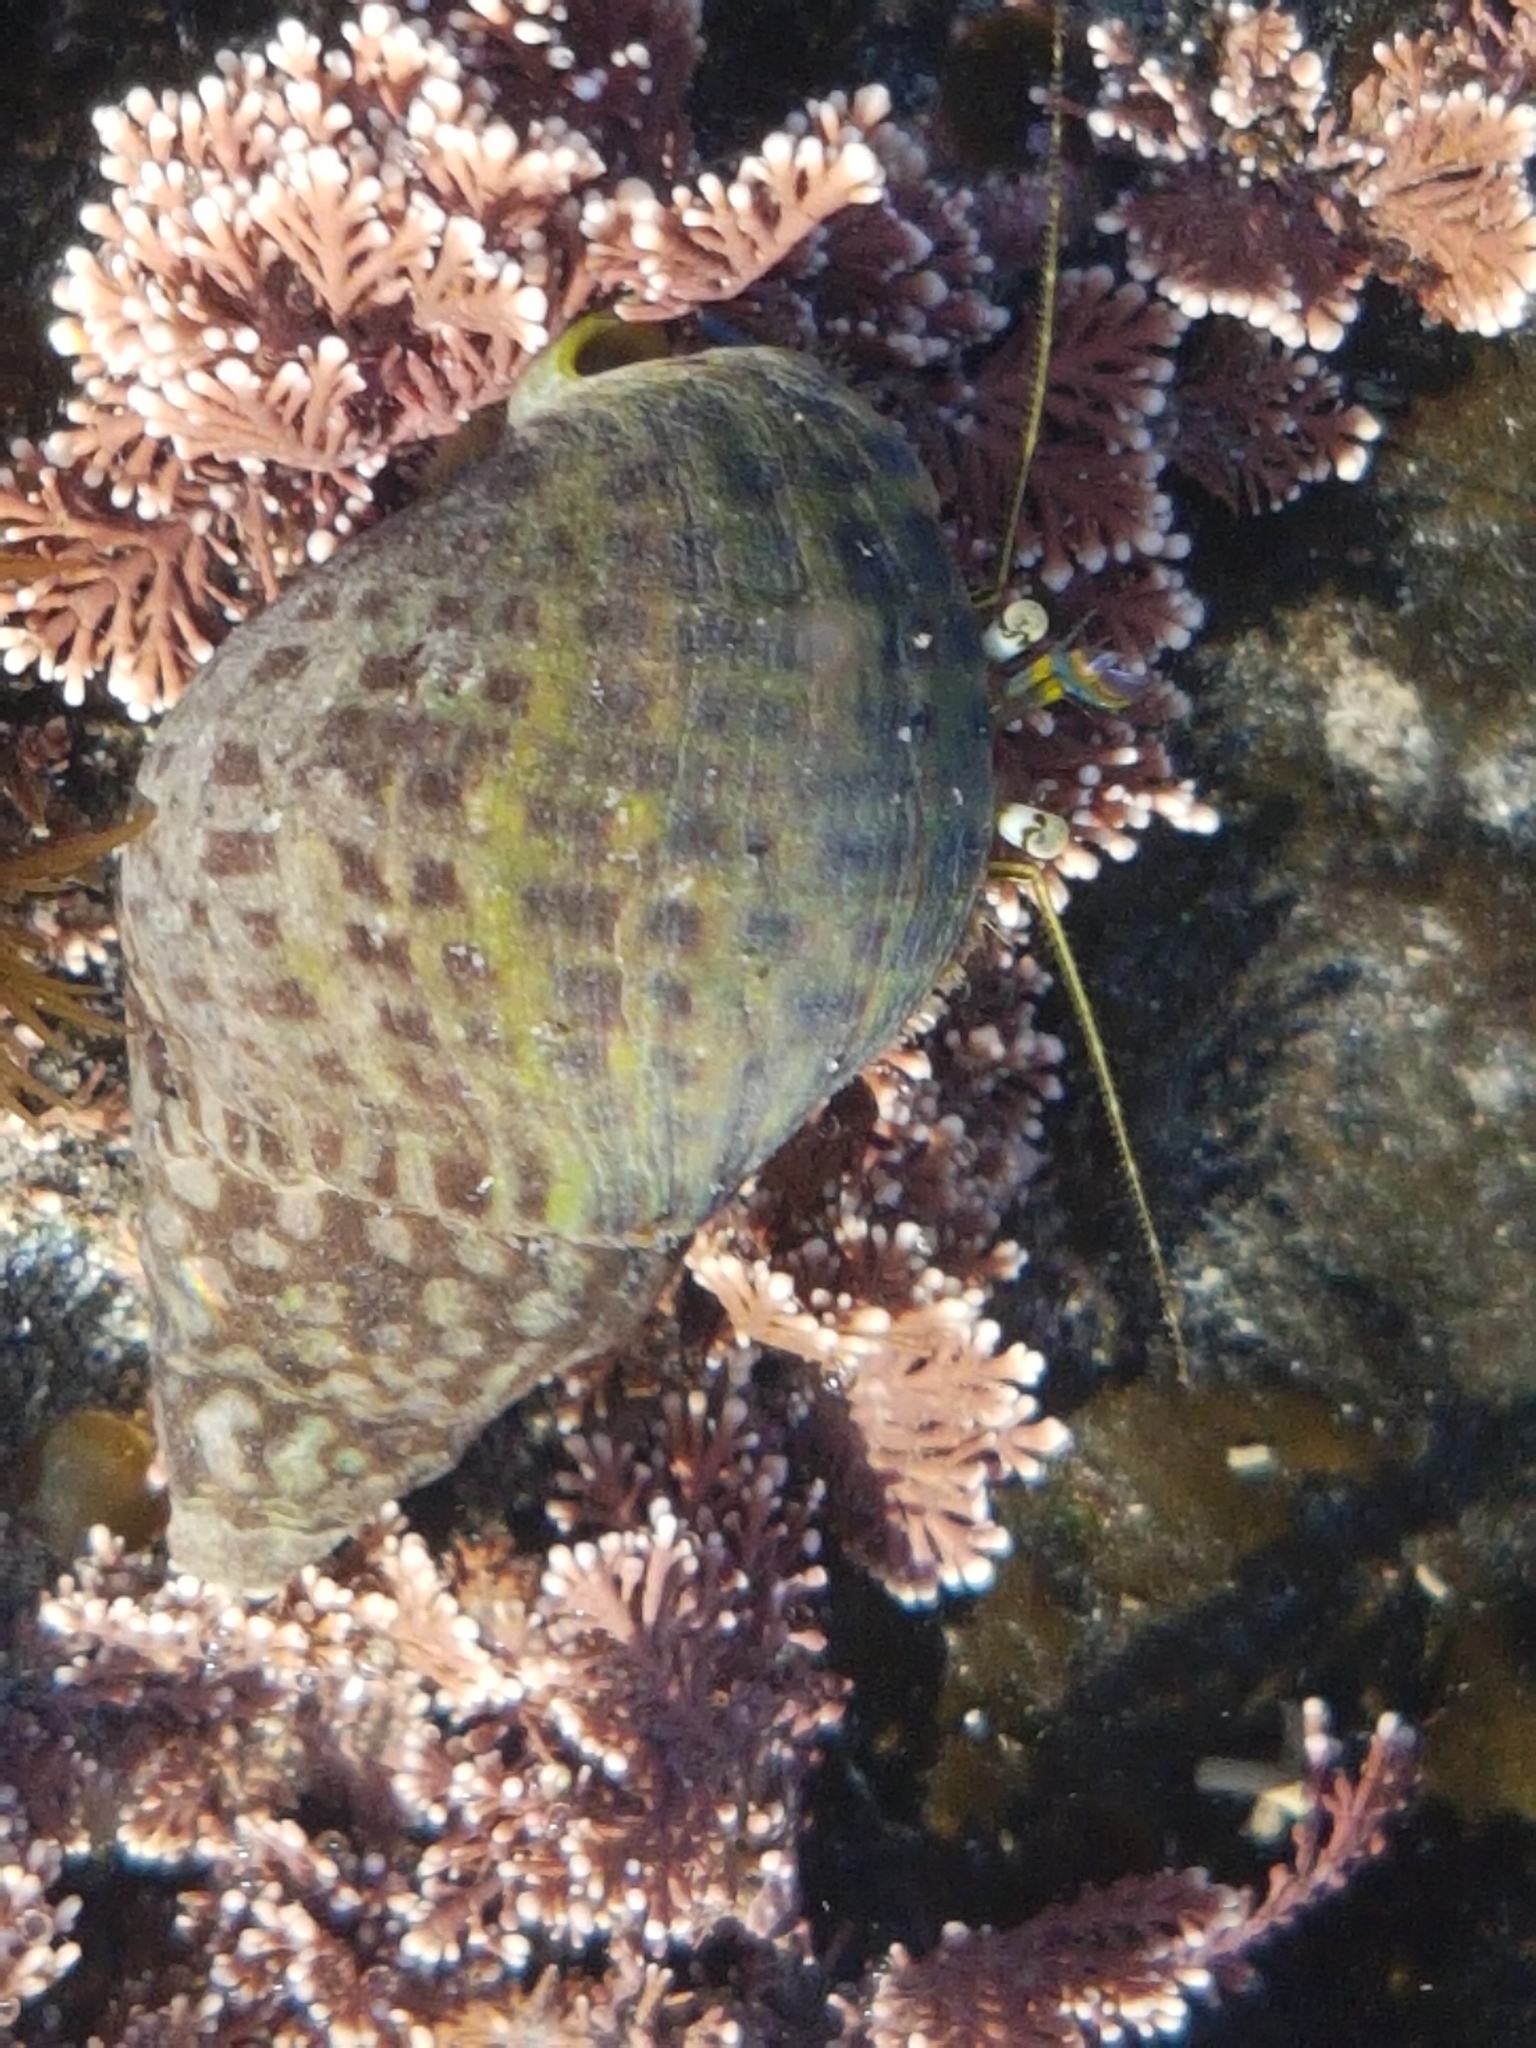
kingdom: Animalia
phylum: Arthropoda
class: Malacostraca
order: Decapoda
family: Paguridae
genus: Pagurus
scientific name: Pagurus novizealandiae
